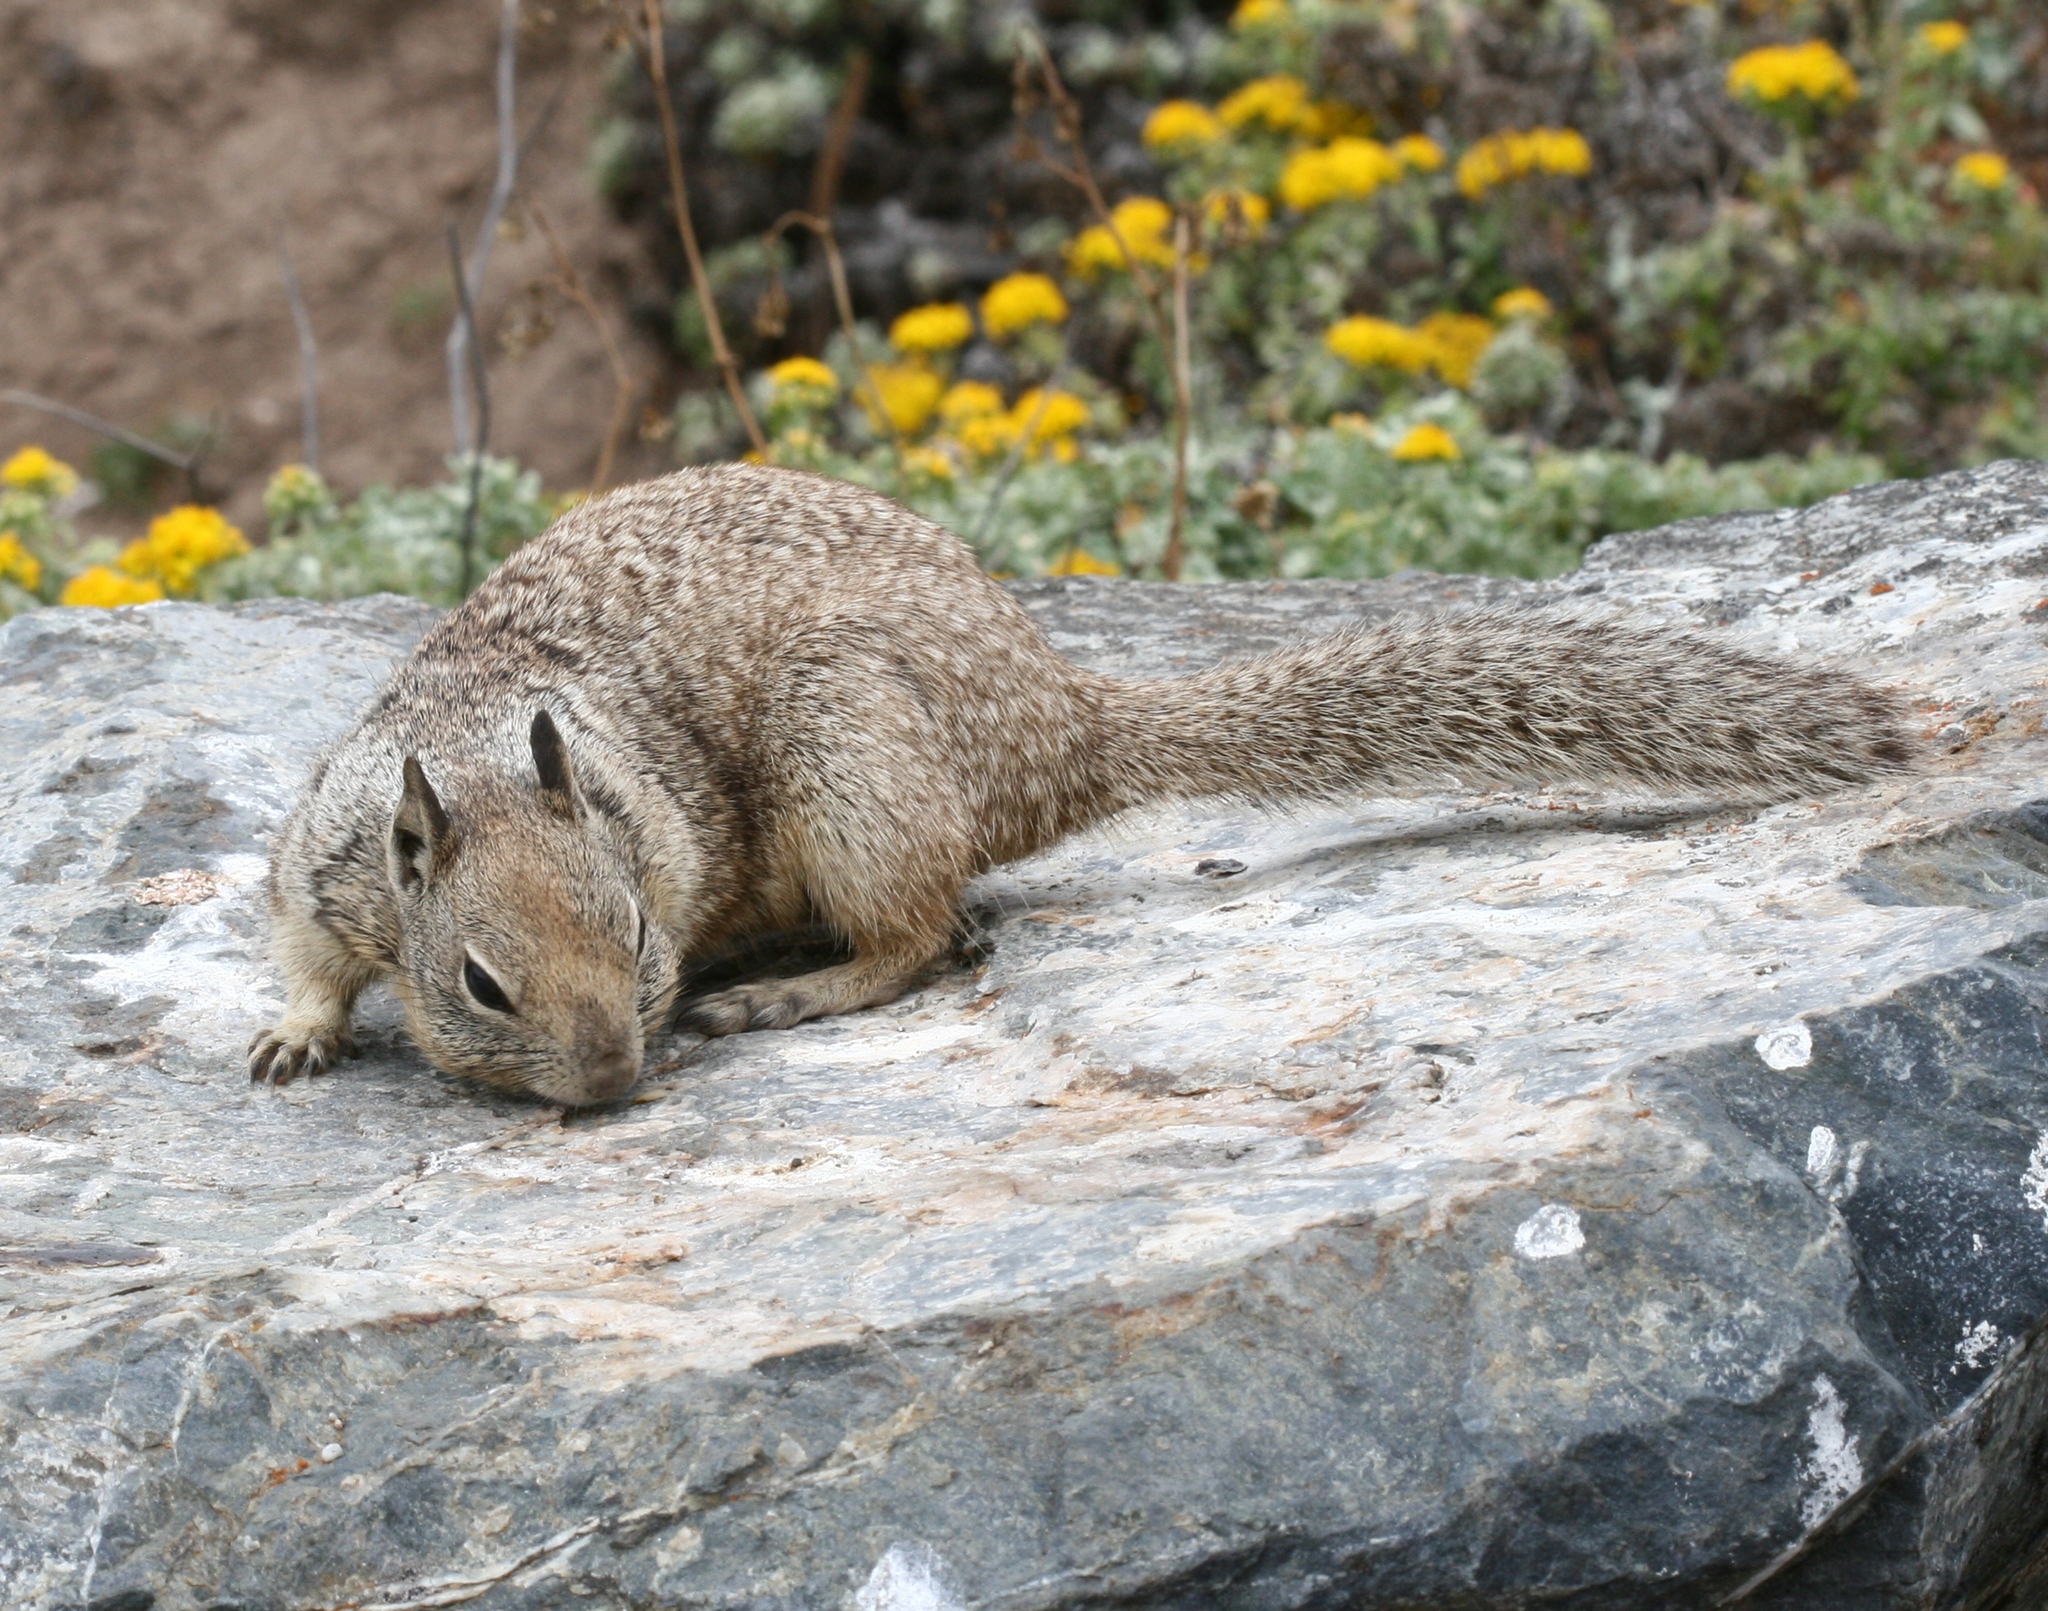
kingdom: Animalia
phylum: Chordata
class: Mammalia
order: Rodentia
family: Sciuridae
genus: Otospermophilus
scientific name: Otospermophilus beecheyi
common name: California ground squirrel
